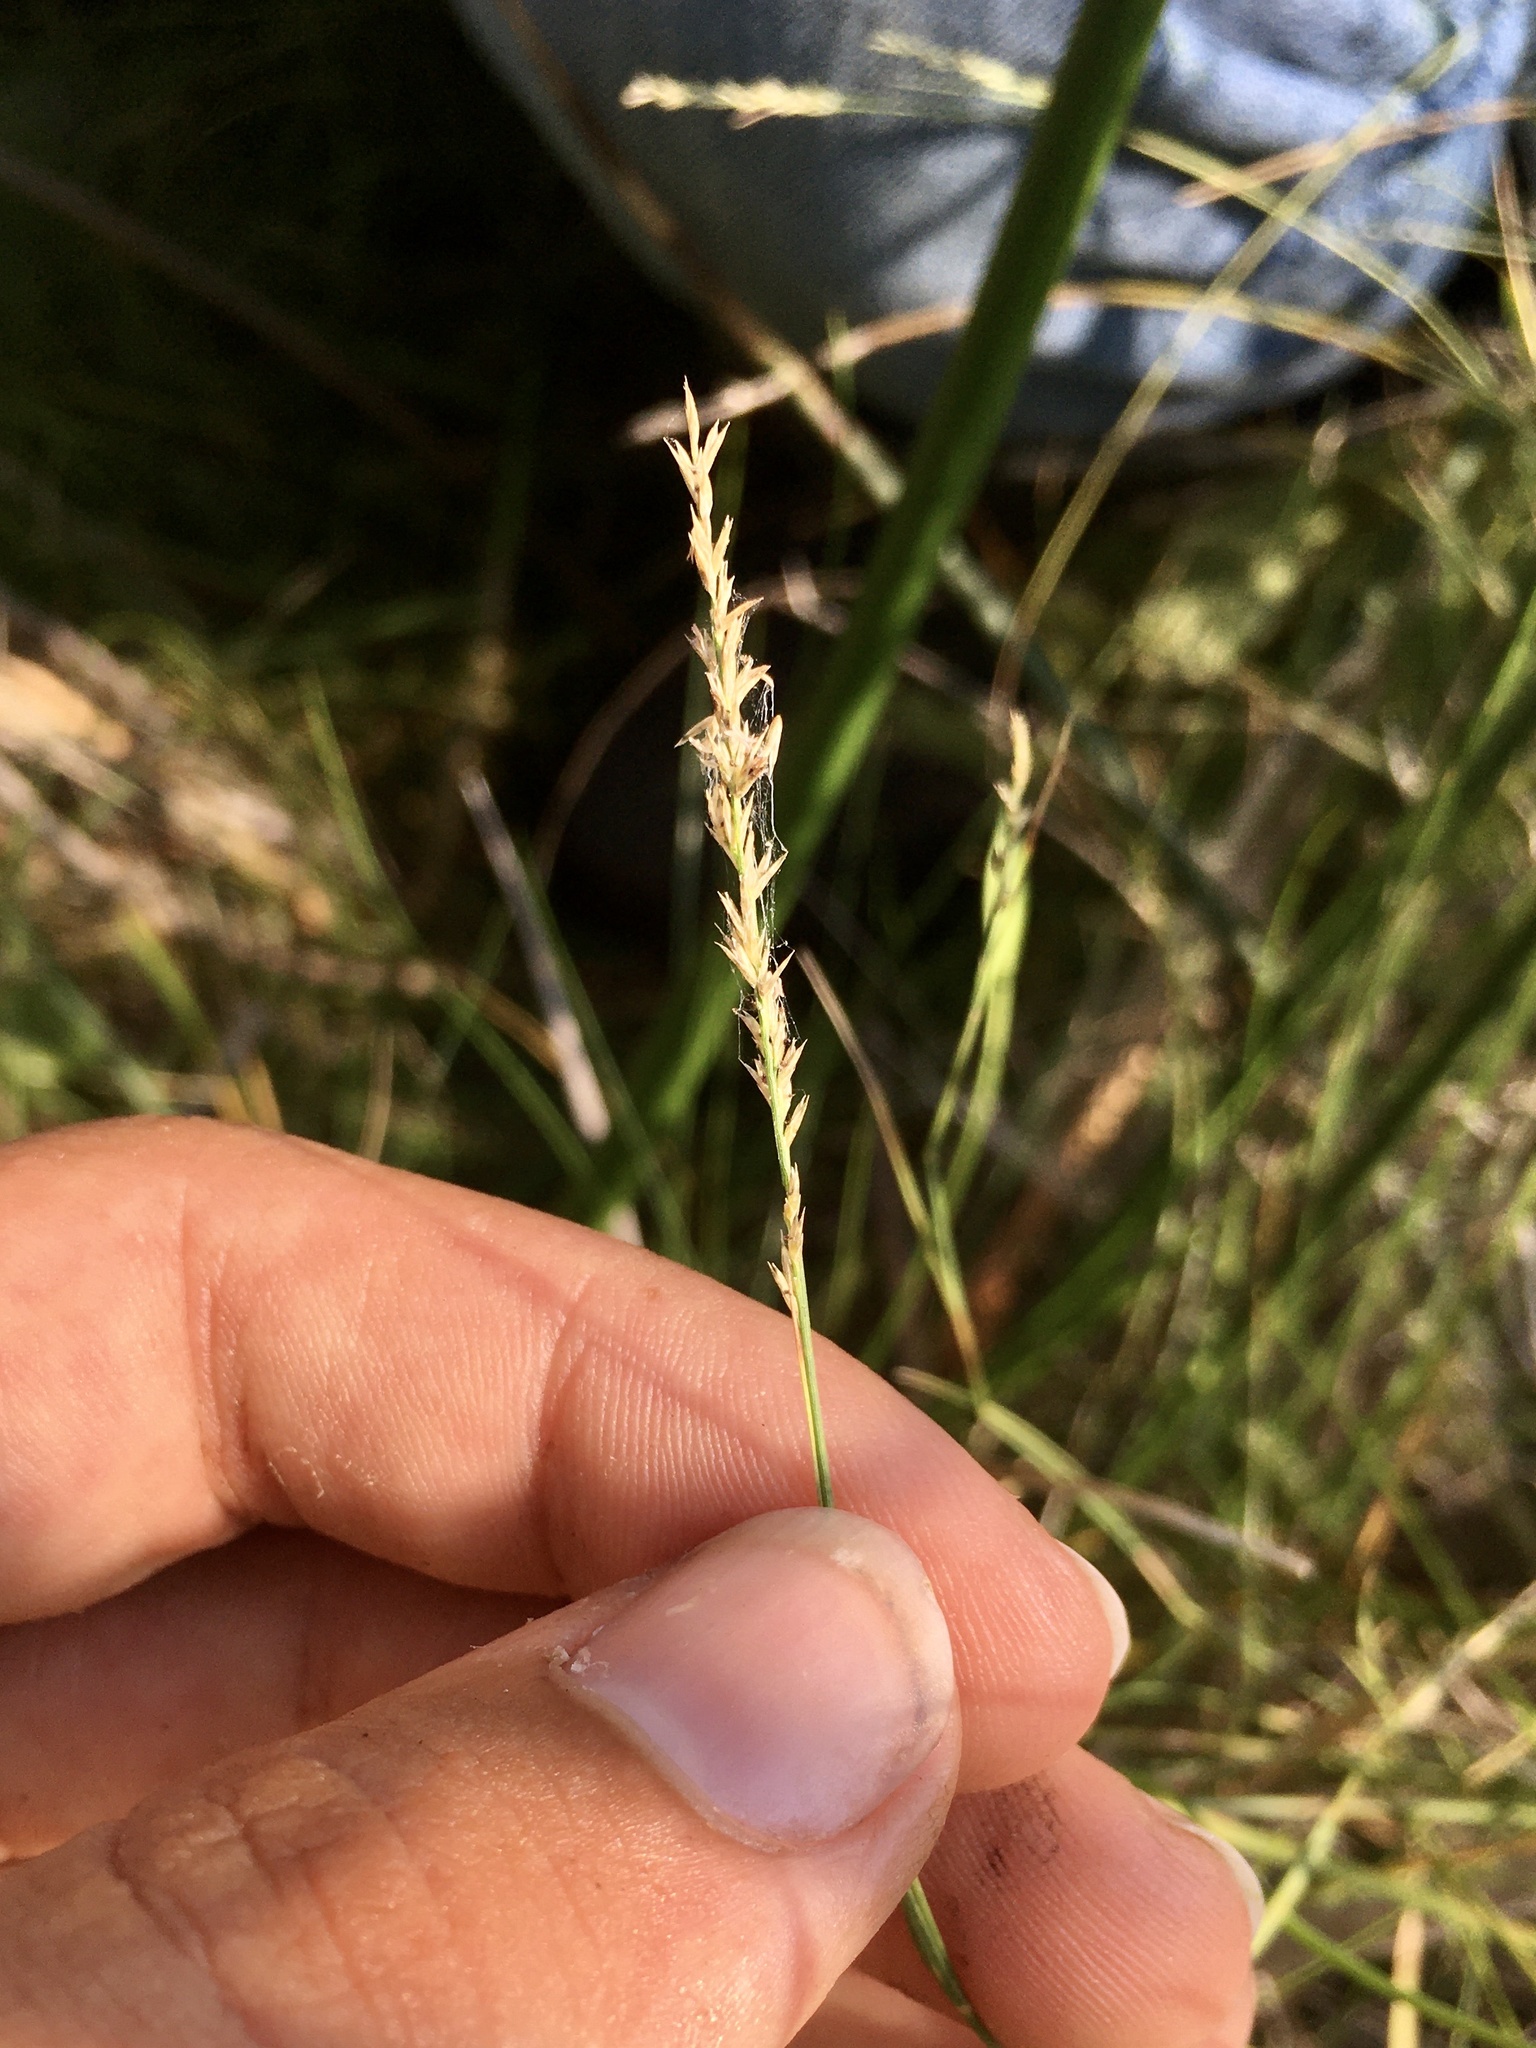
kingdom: Plantae
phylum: Tracheophyta
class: Liliopsida
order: Poales
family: Poaceae
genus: Muhlenbergia
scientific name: Muhlenbergia richardsonis
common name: Mat muhly
